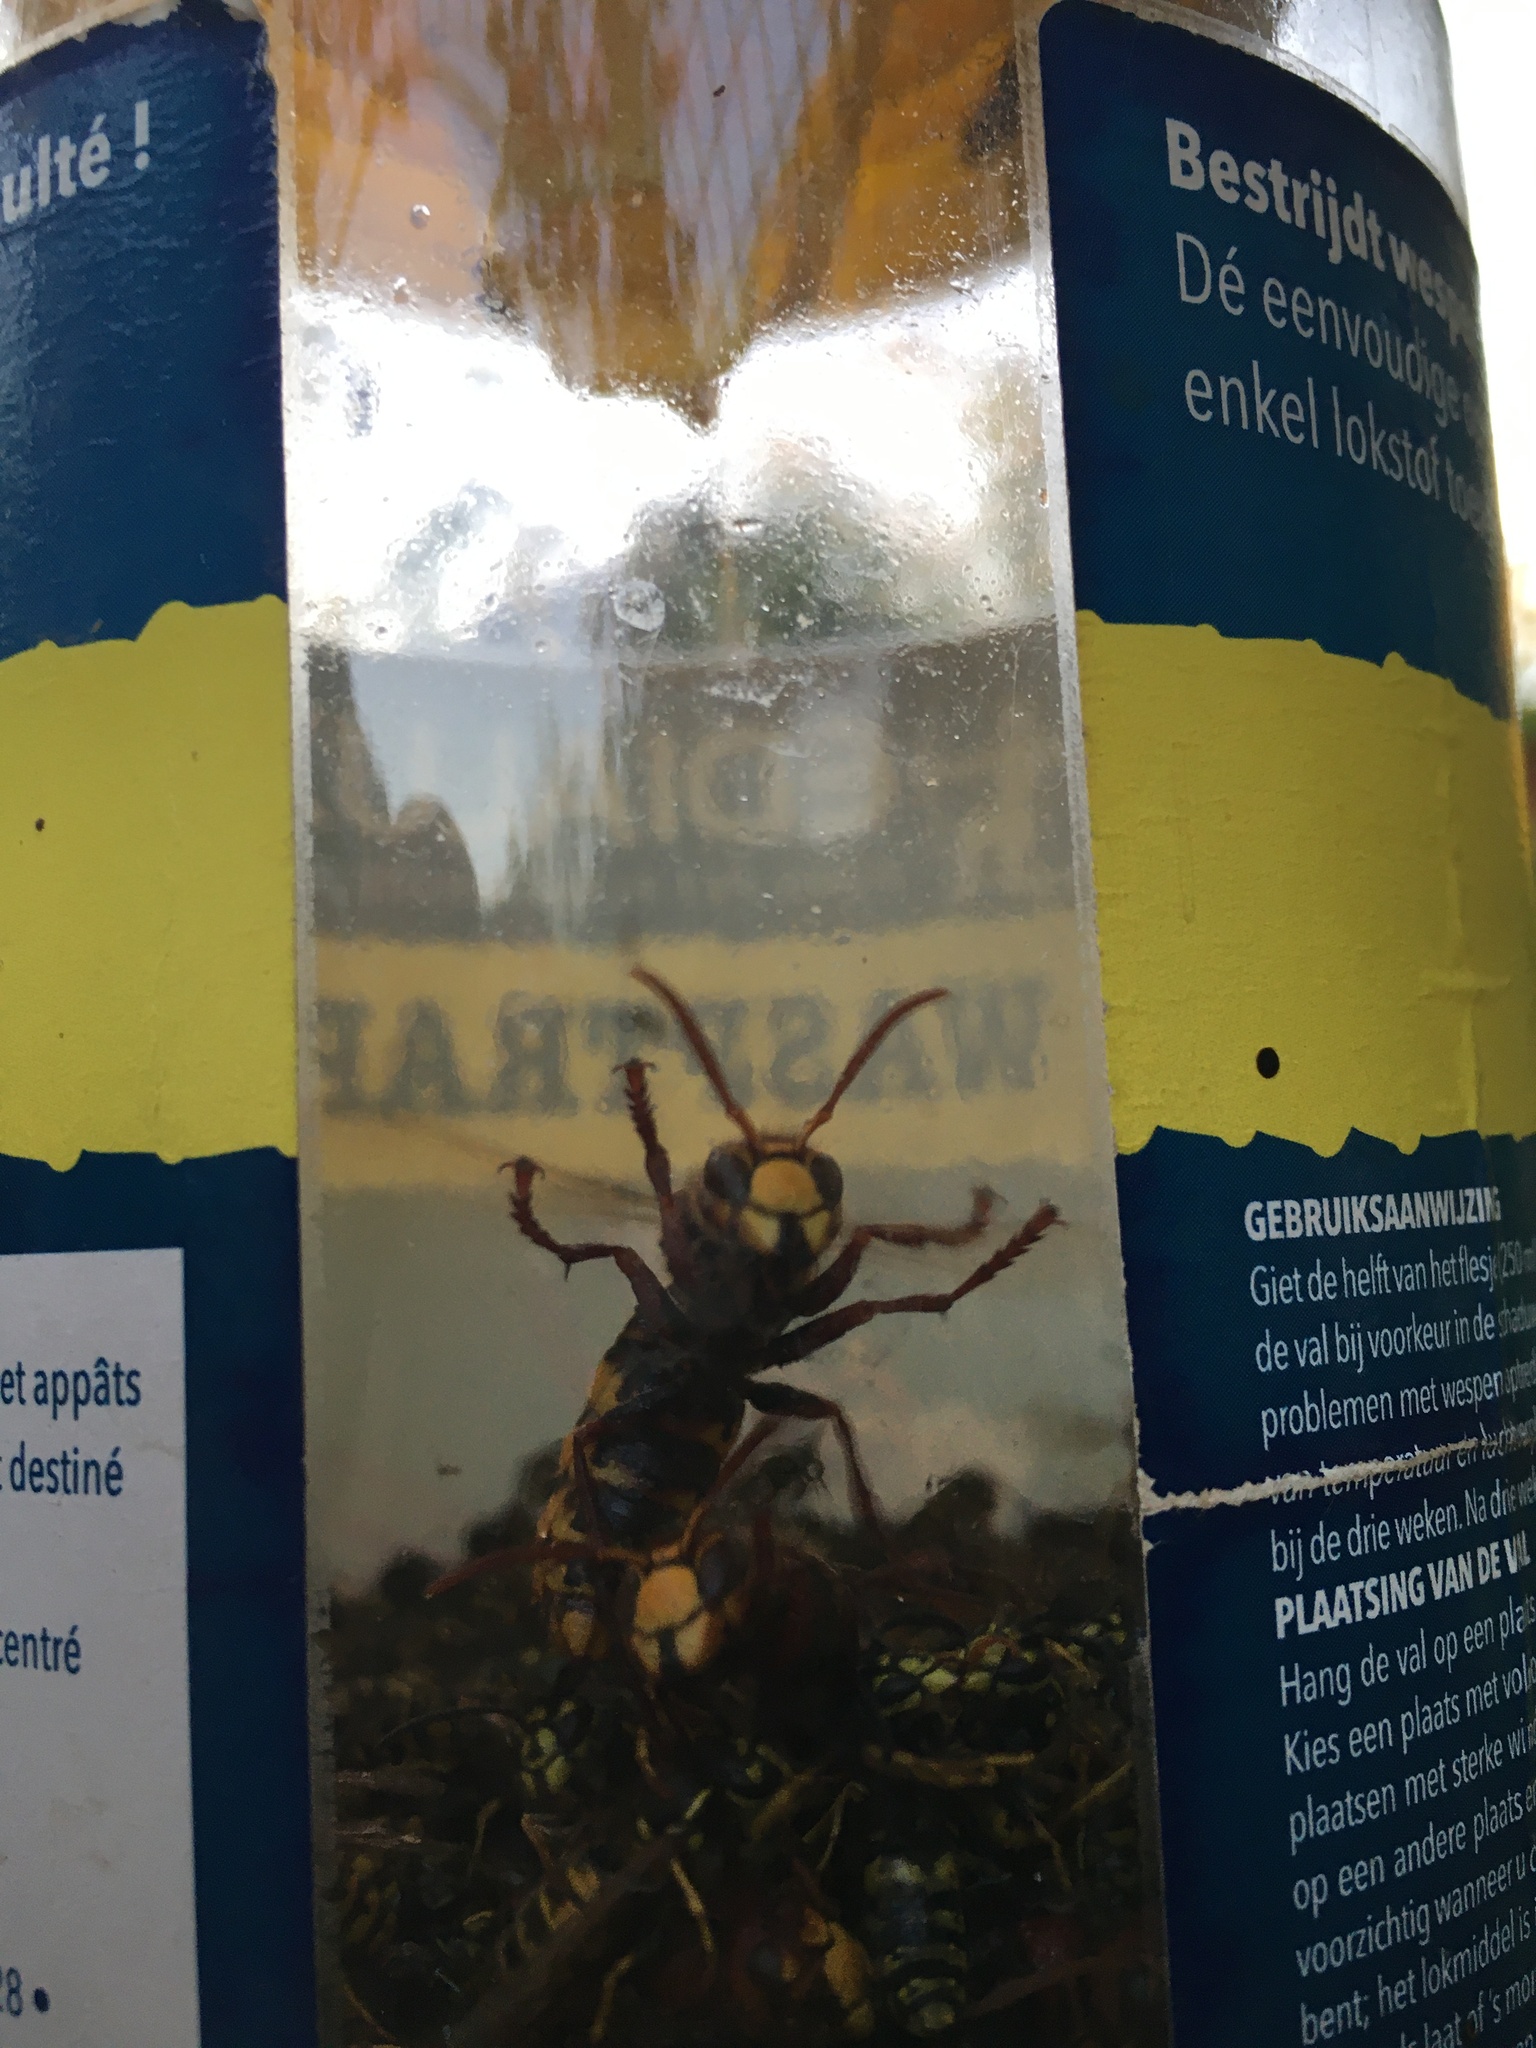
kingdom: Animalia
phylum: Arthropoda
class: Insecta
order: Hymenoptera
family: Vespidae
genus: Vespa
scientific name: Vespa crabro
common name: Hornet
